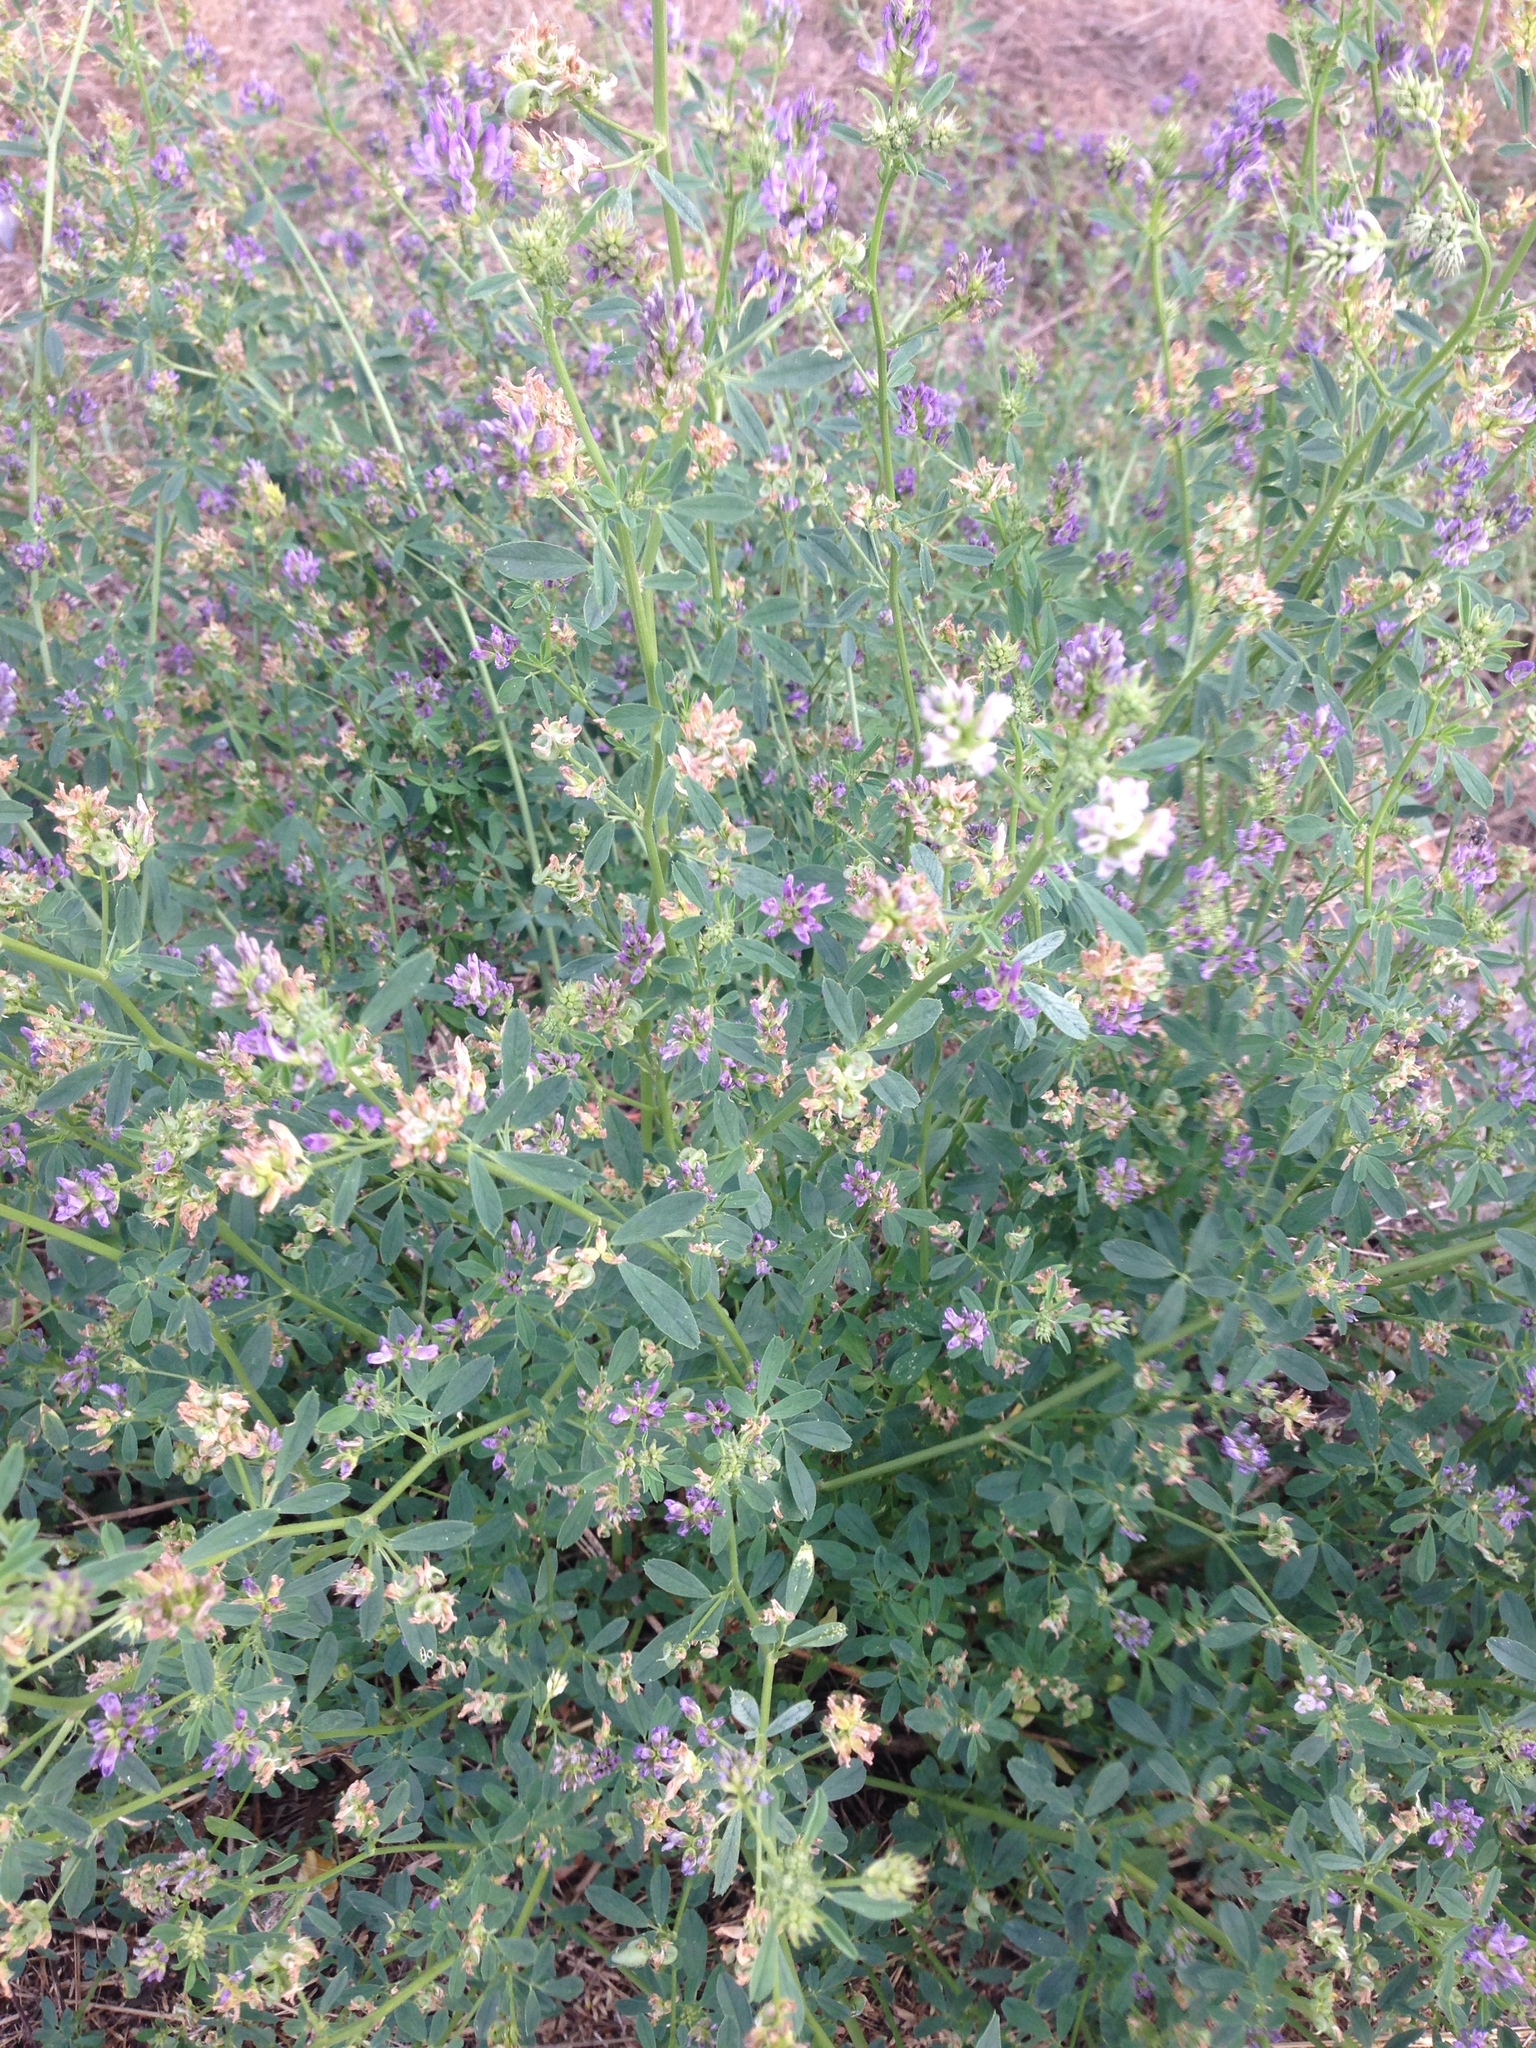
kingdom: Plantae
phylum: Tracheophyta
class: Magnoliopsida
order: Fabales
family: Fabaceae
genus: Medicago
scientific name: Medicago varia
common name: Sand lucerne
